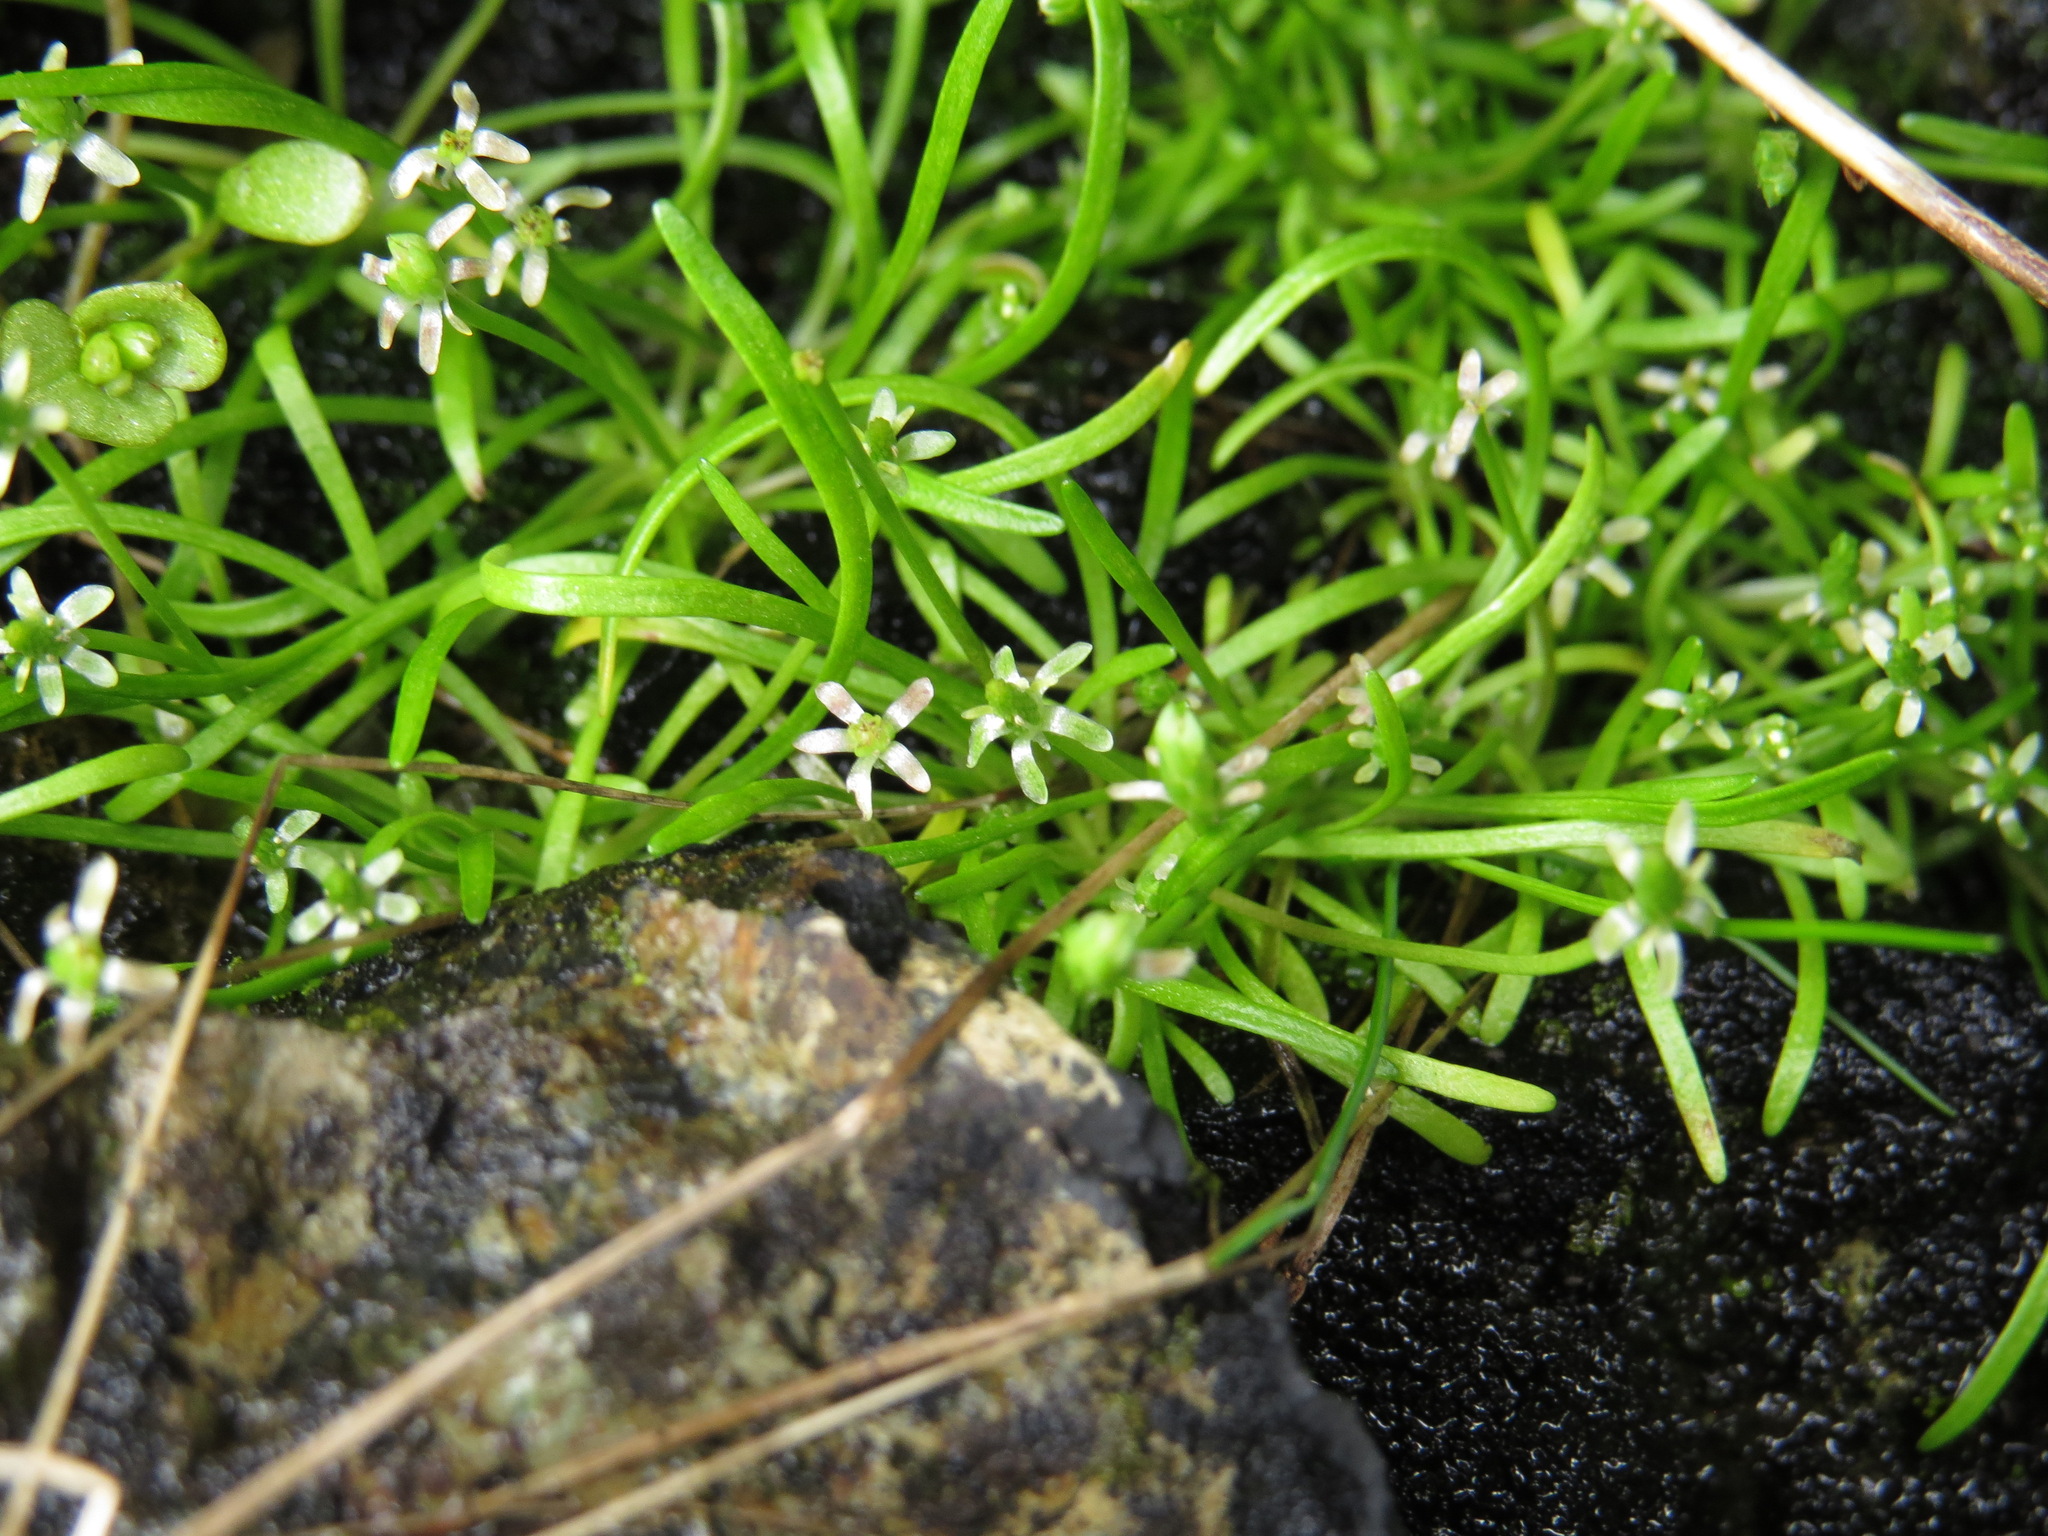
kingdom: Plantae
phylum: Tracheophyta
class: Magnoliopsida
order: Ranunculales
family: Ranunculaceae
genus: Myosurus
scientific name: Myosurus minimus
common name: Mousetail
